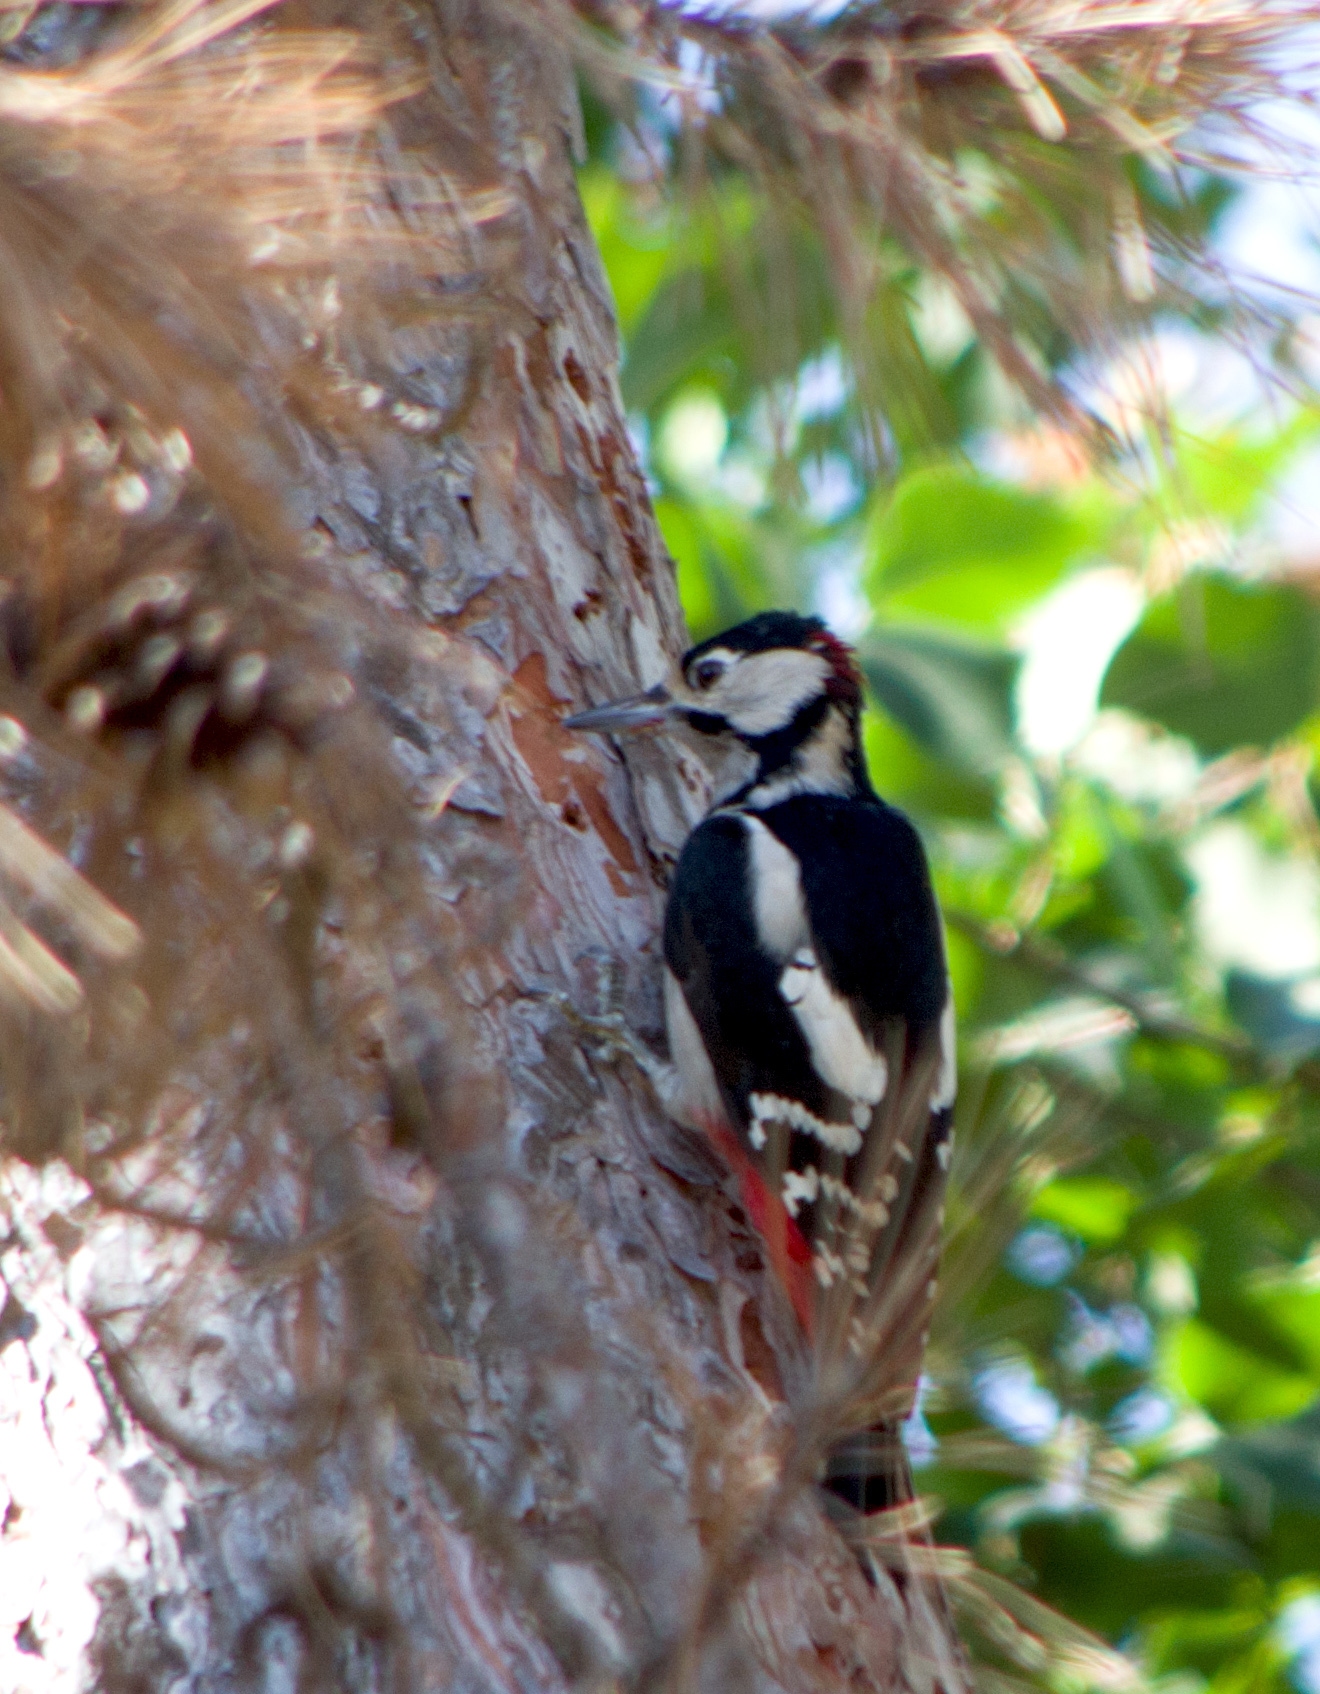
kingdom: Animalia
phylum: Chordata
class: Aves
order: Piciformes
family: Picidae
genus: Dendrocopos
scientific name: Dendrocopos major
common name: Great spotted woodpecker
